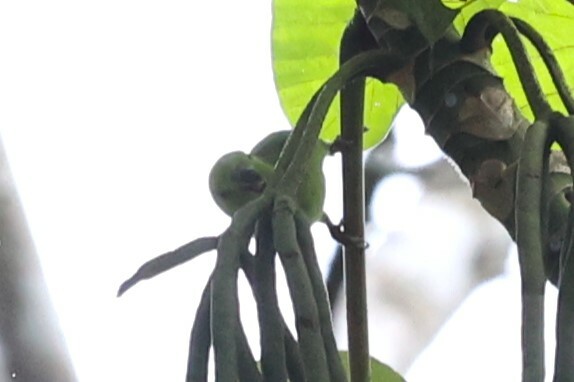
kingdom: Animalia
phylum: Chordata
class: Aves
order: Psittaciformes
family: Psittacidae
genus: Forpus
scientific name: Forpus modestus
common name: Dusky-billed parrotlet
